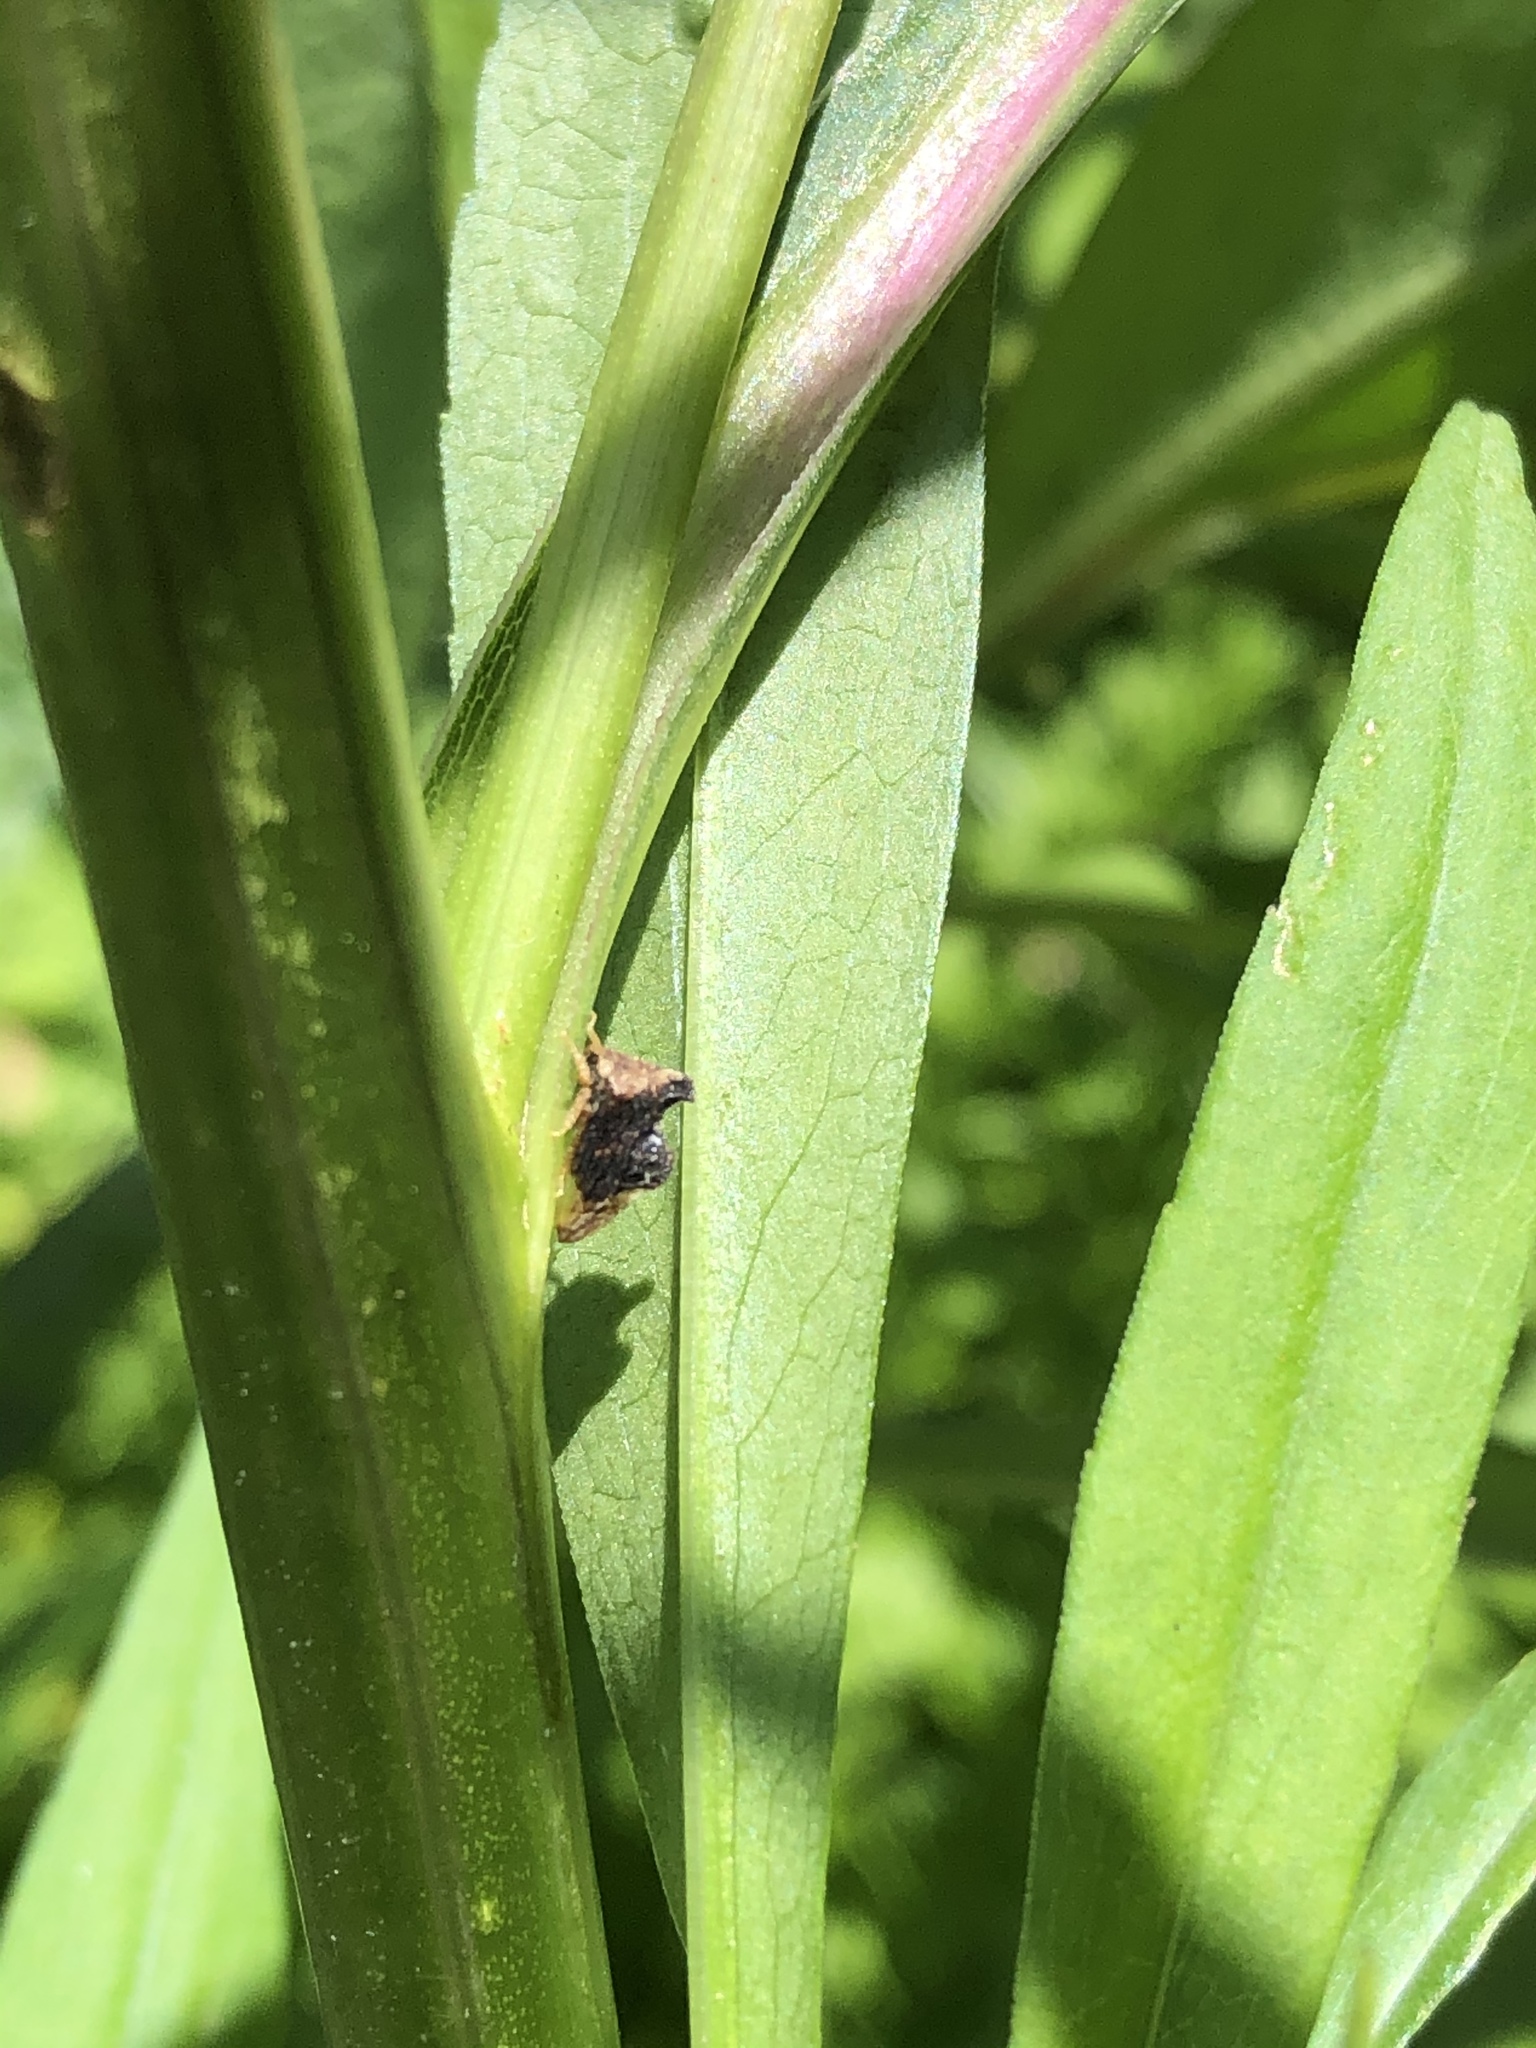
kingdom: Animalia
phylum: Arthropoda
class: Insecta
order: Hemiptera
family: Membracidae
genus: Entylia
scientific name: Entylia carinata
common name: Keeled treehopper
